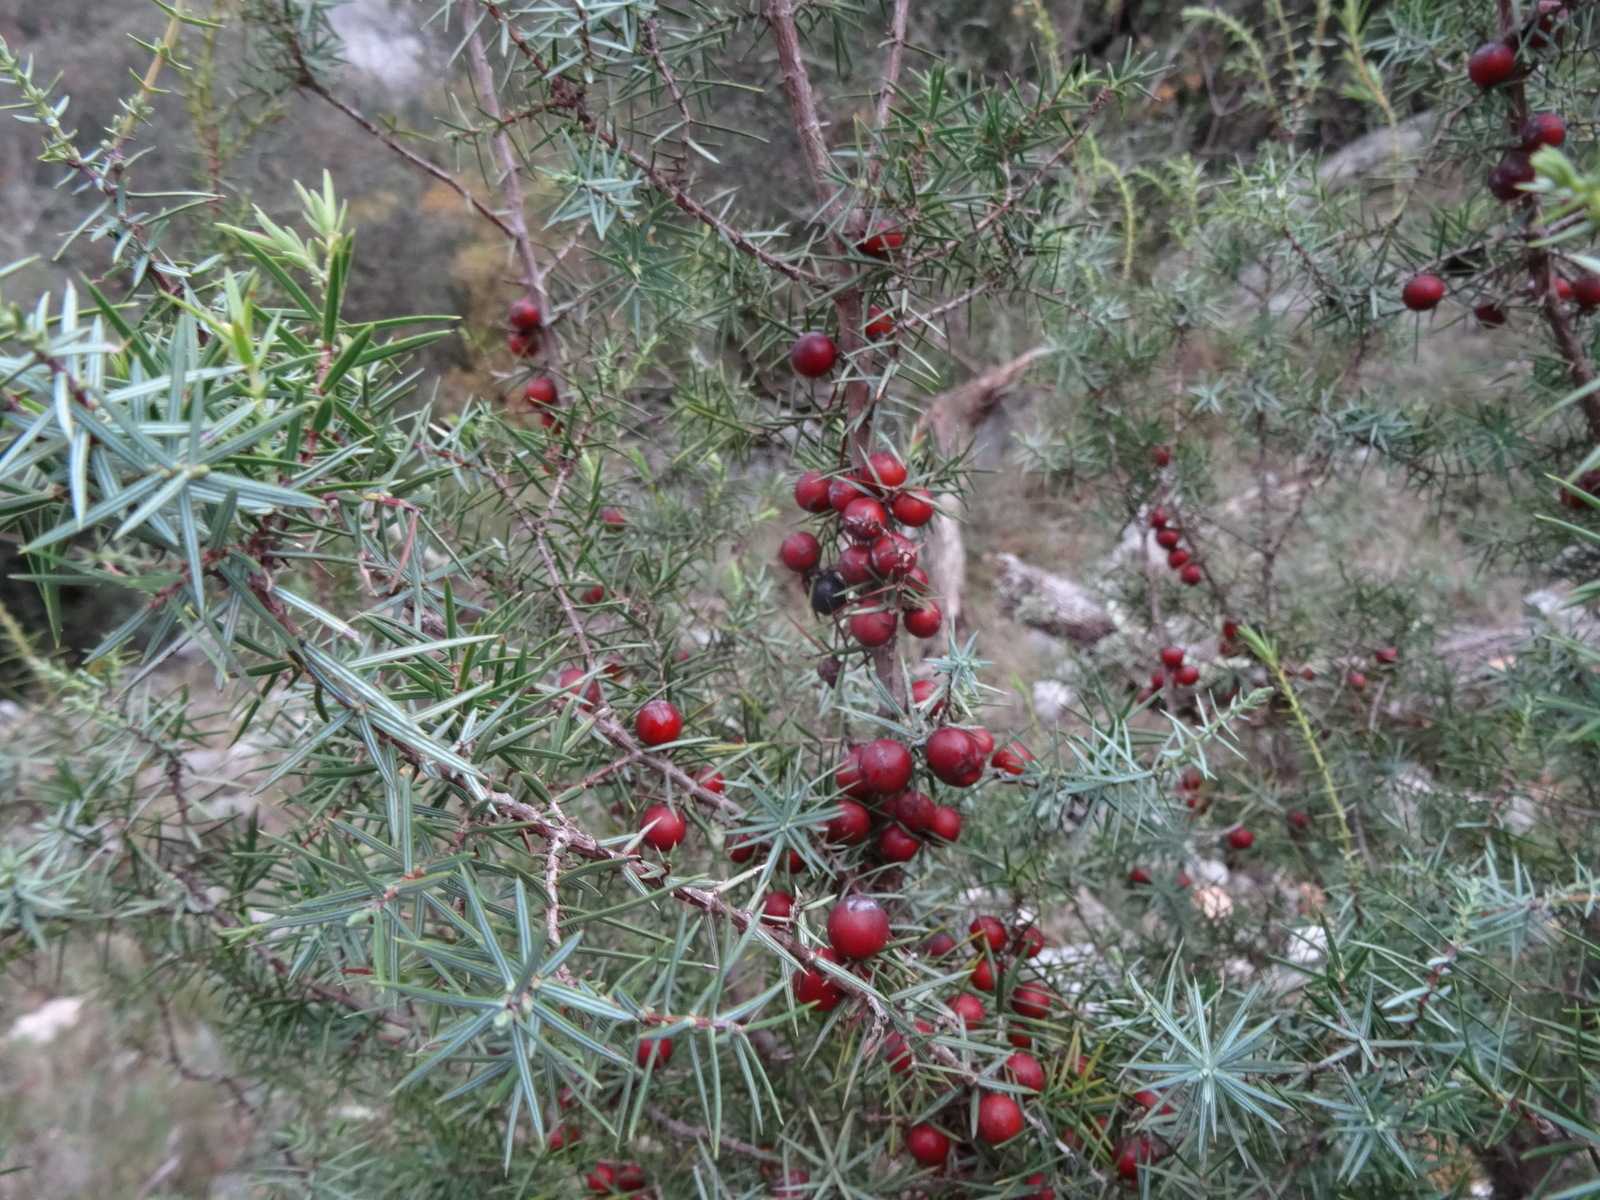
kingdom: Plantae
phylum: Tracheophyta
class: Pinopsida
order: Pinales
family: Cupressaceae
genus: Juniperus
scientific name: Juniperus oxycedrus
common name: Prickly juniper
